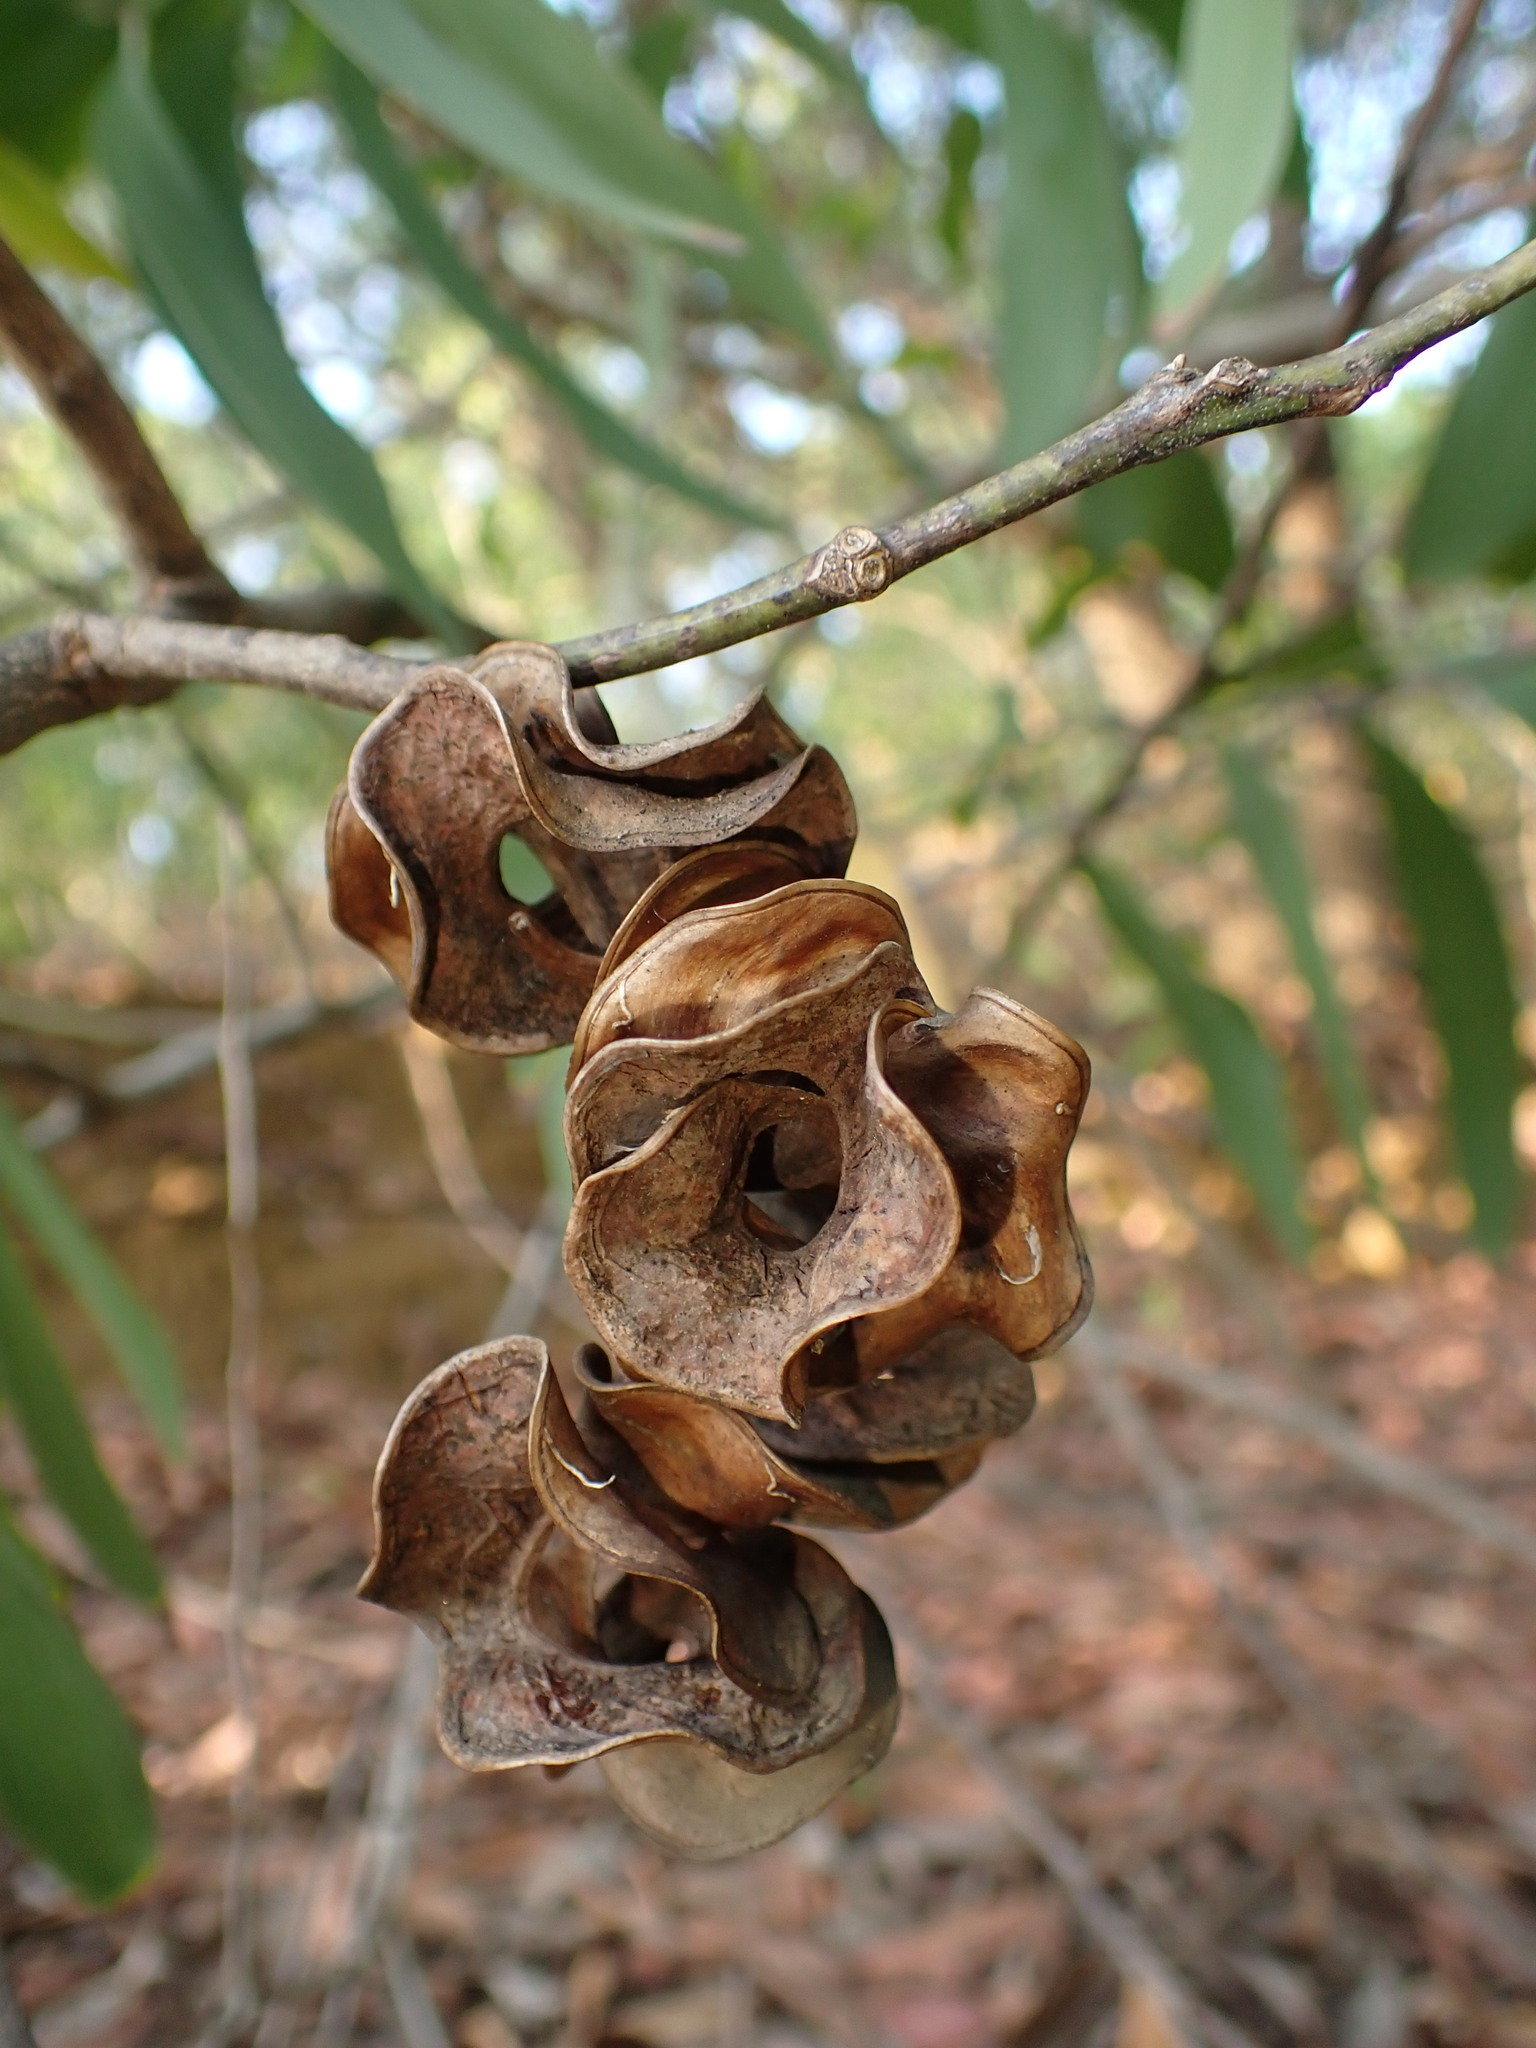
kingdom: Plantae
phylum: Tracheophyta
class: Magnoliopsida
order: Fabales
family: Fabaceae
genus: Acacia
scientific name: Acacia auriculiformis
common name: Earleaf acacia
